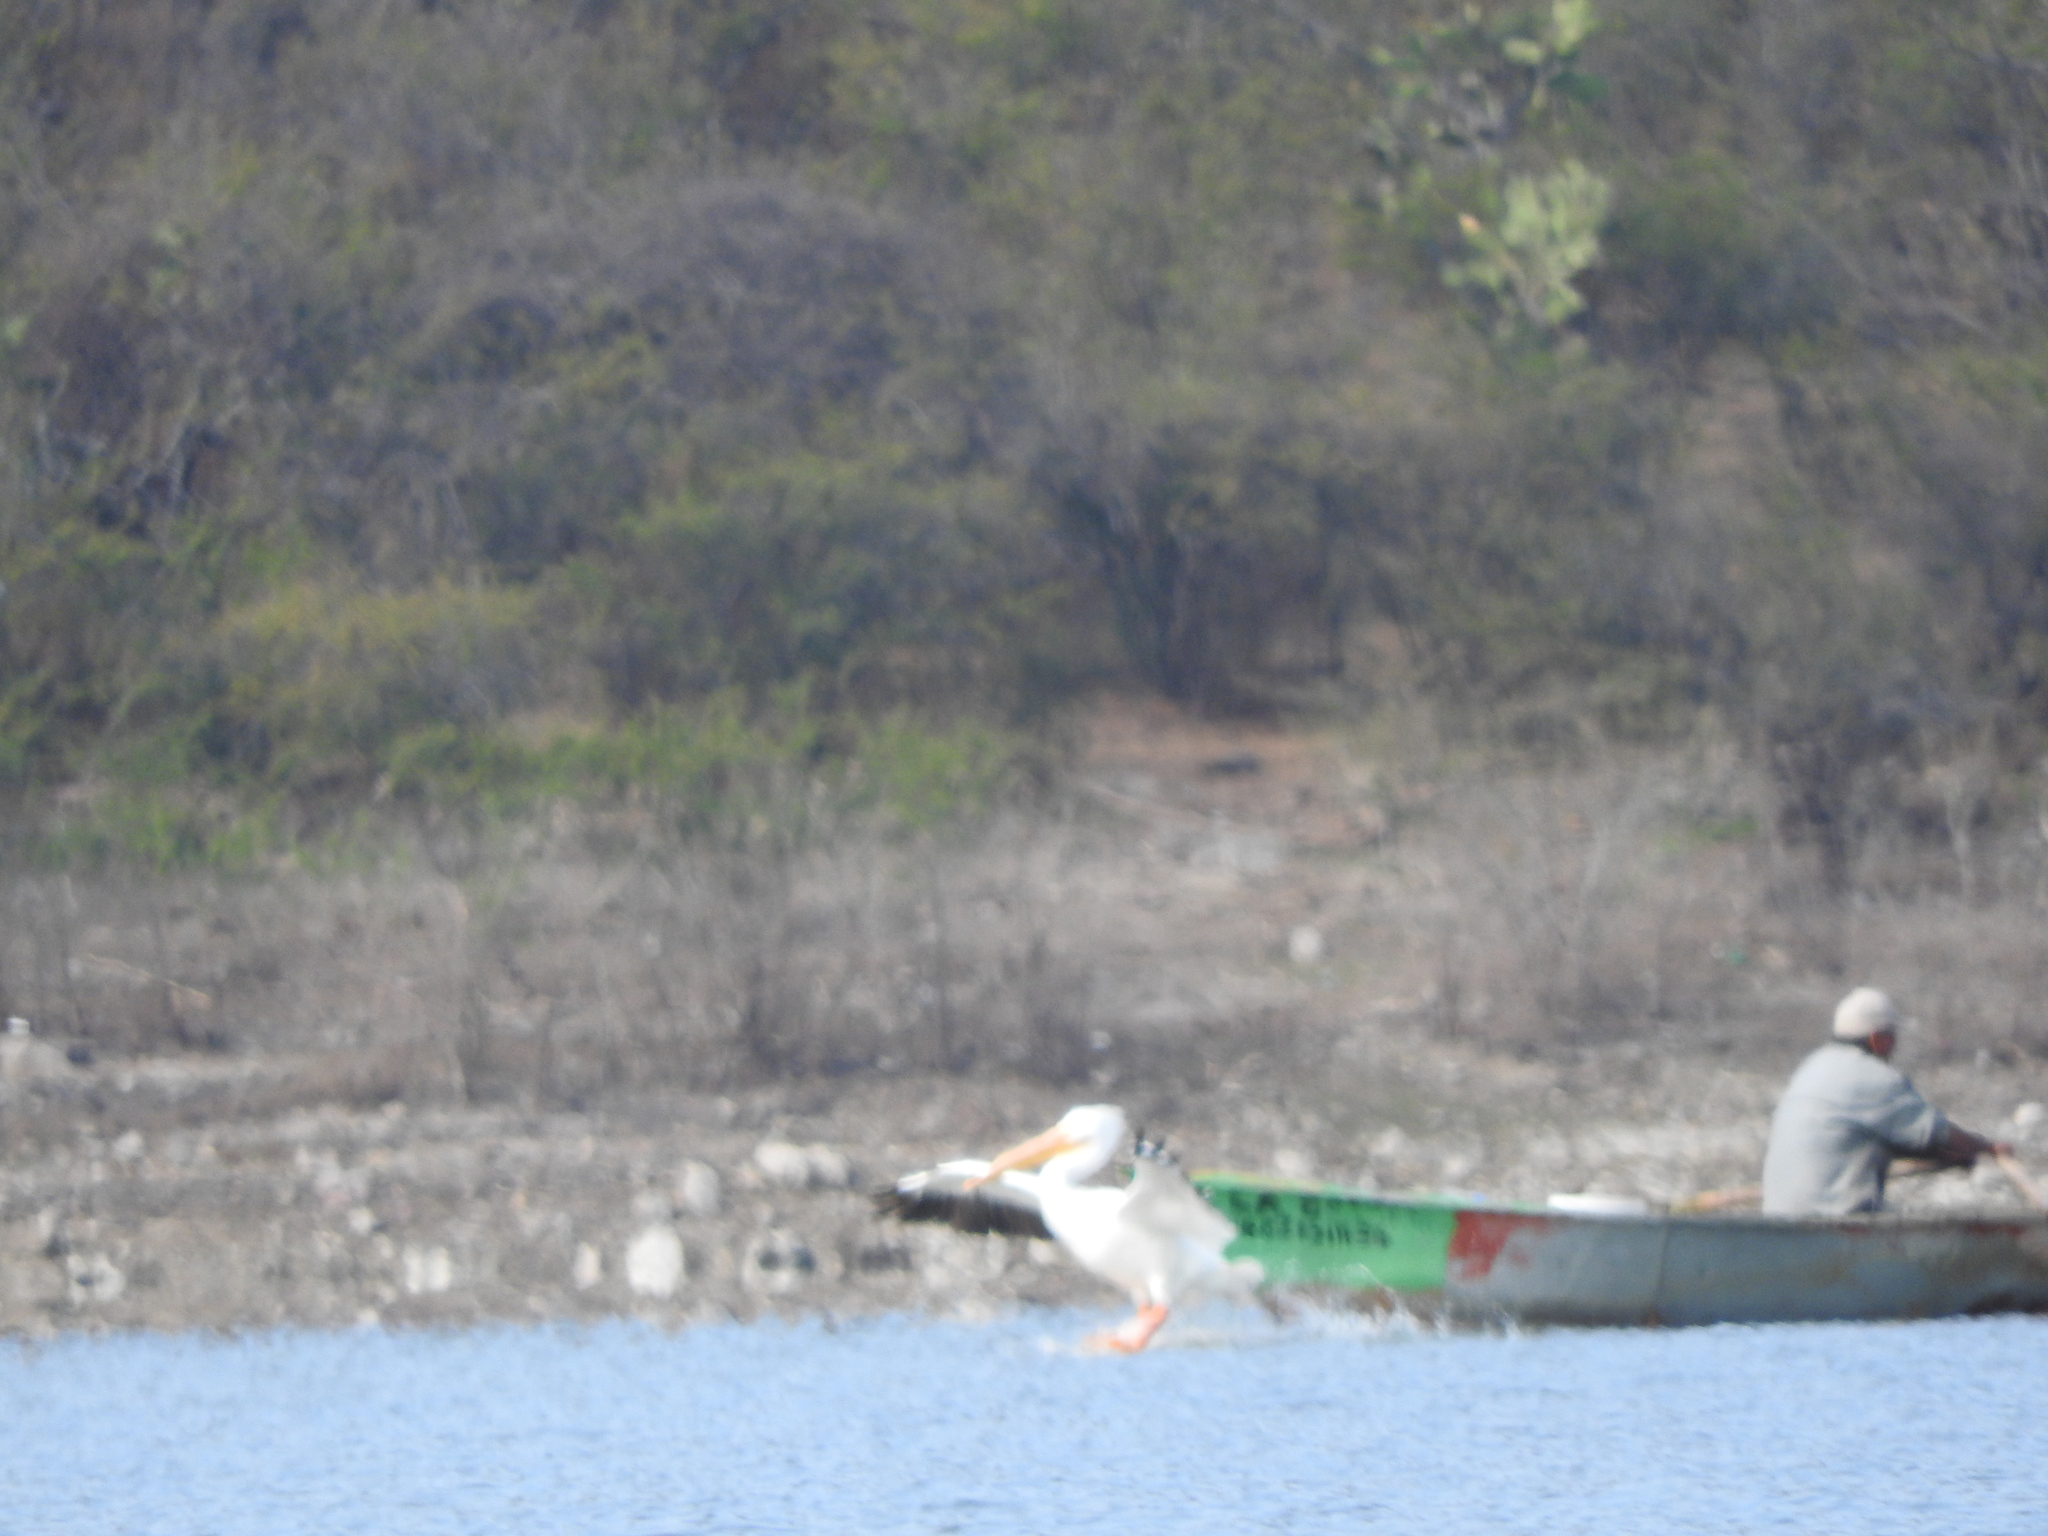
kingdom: Animalia
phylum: Chordata
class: Aves
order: Pelecaniformes
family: Pelecanidae
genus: Pelecanus
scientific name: Pelecanus erythrorhynchos
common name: American white pelican
